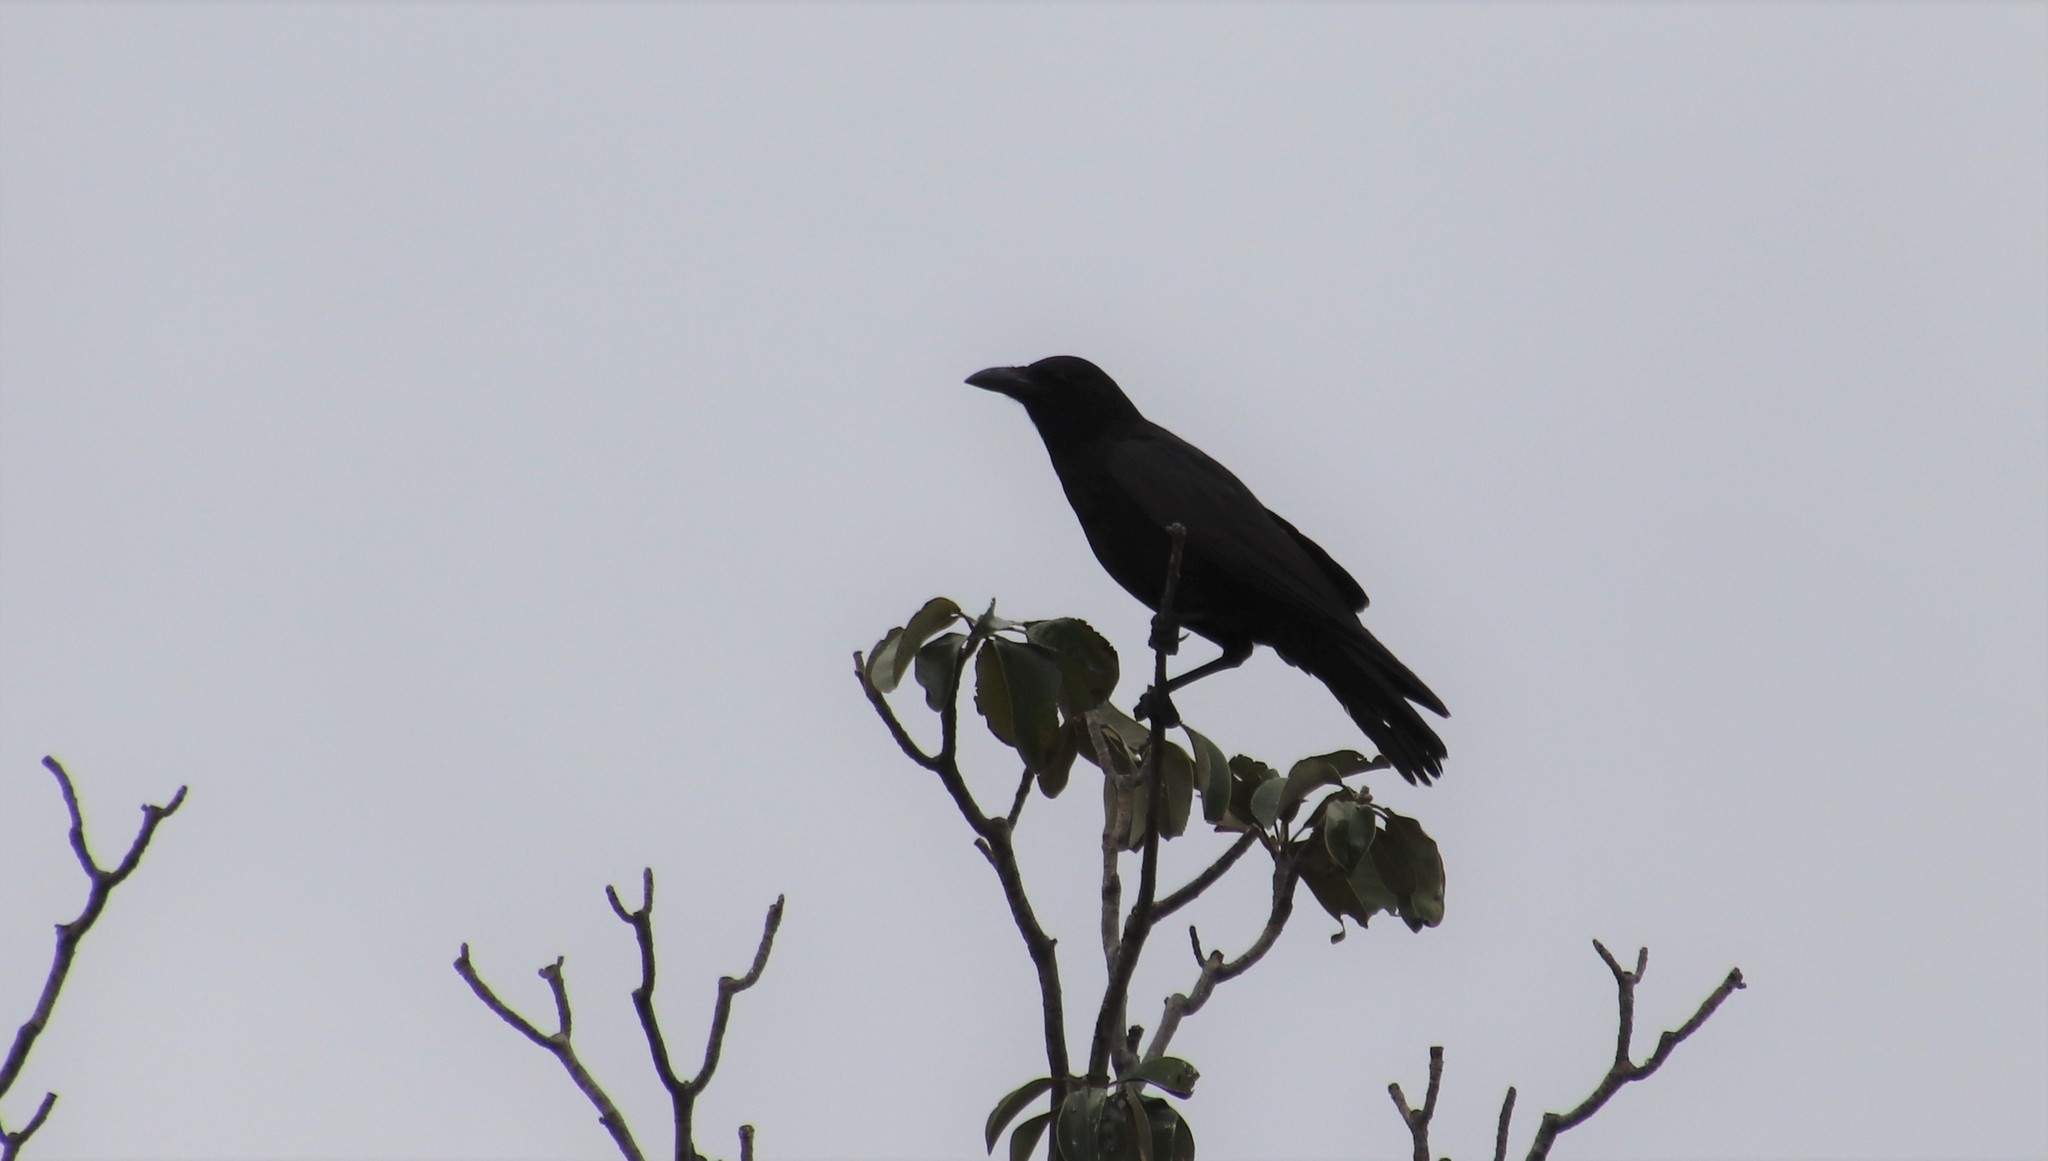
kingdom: Animalia
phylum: Chordata
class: Aves
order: Passeriformes
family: Corvidae
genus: Corvus
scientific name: Corvus brachyrhynchos
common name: American crow
